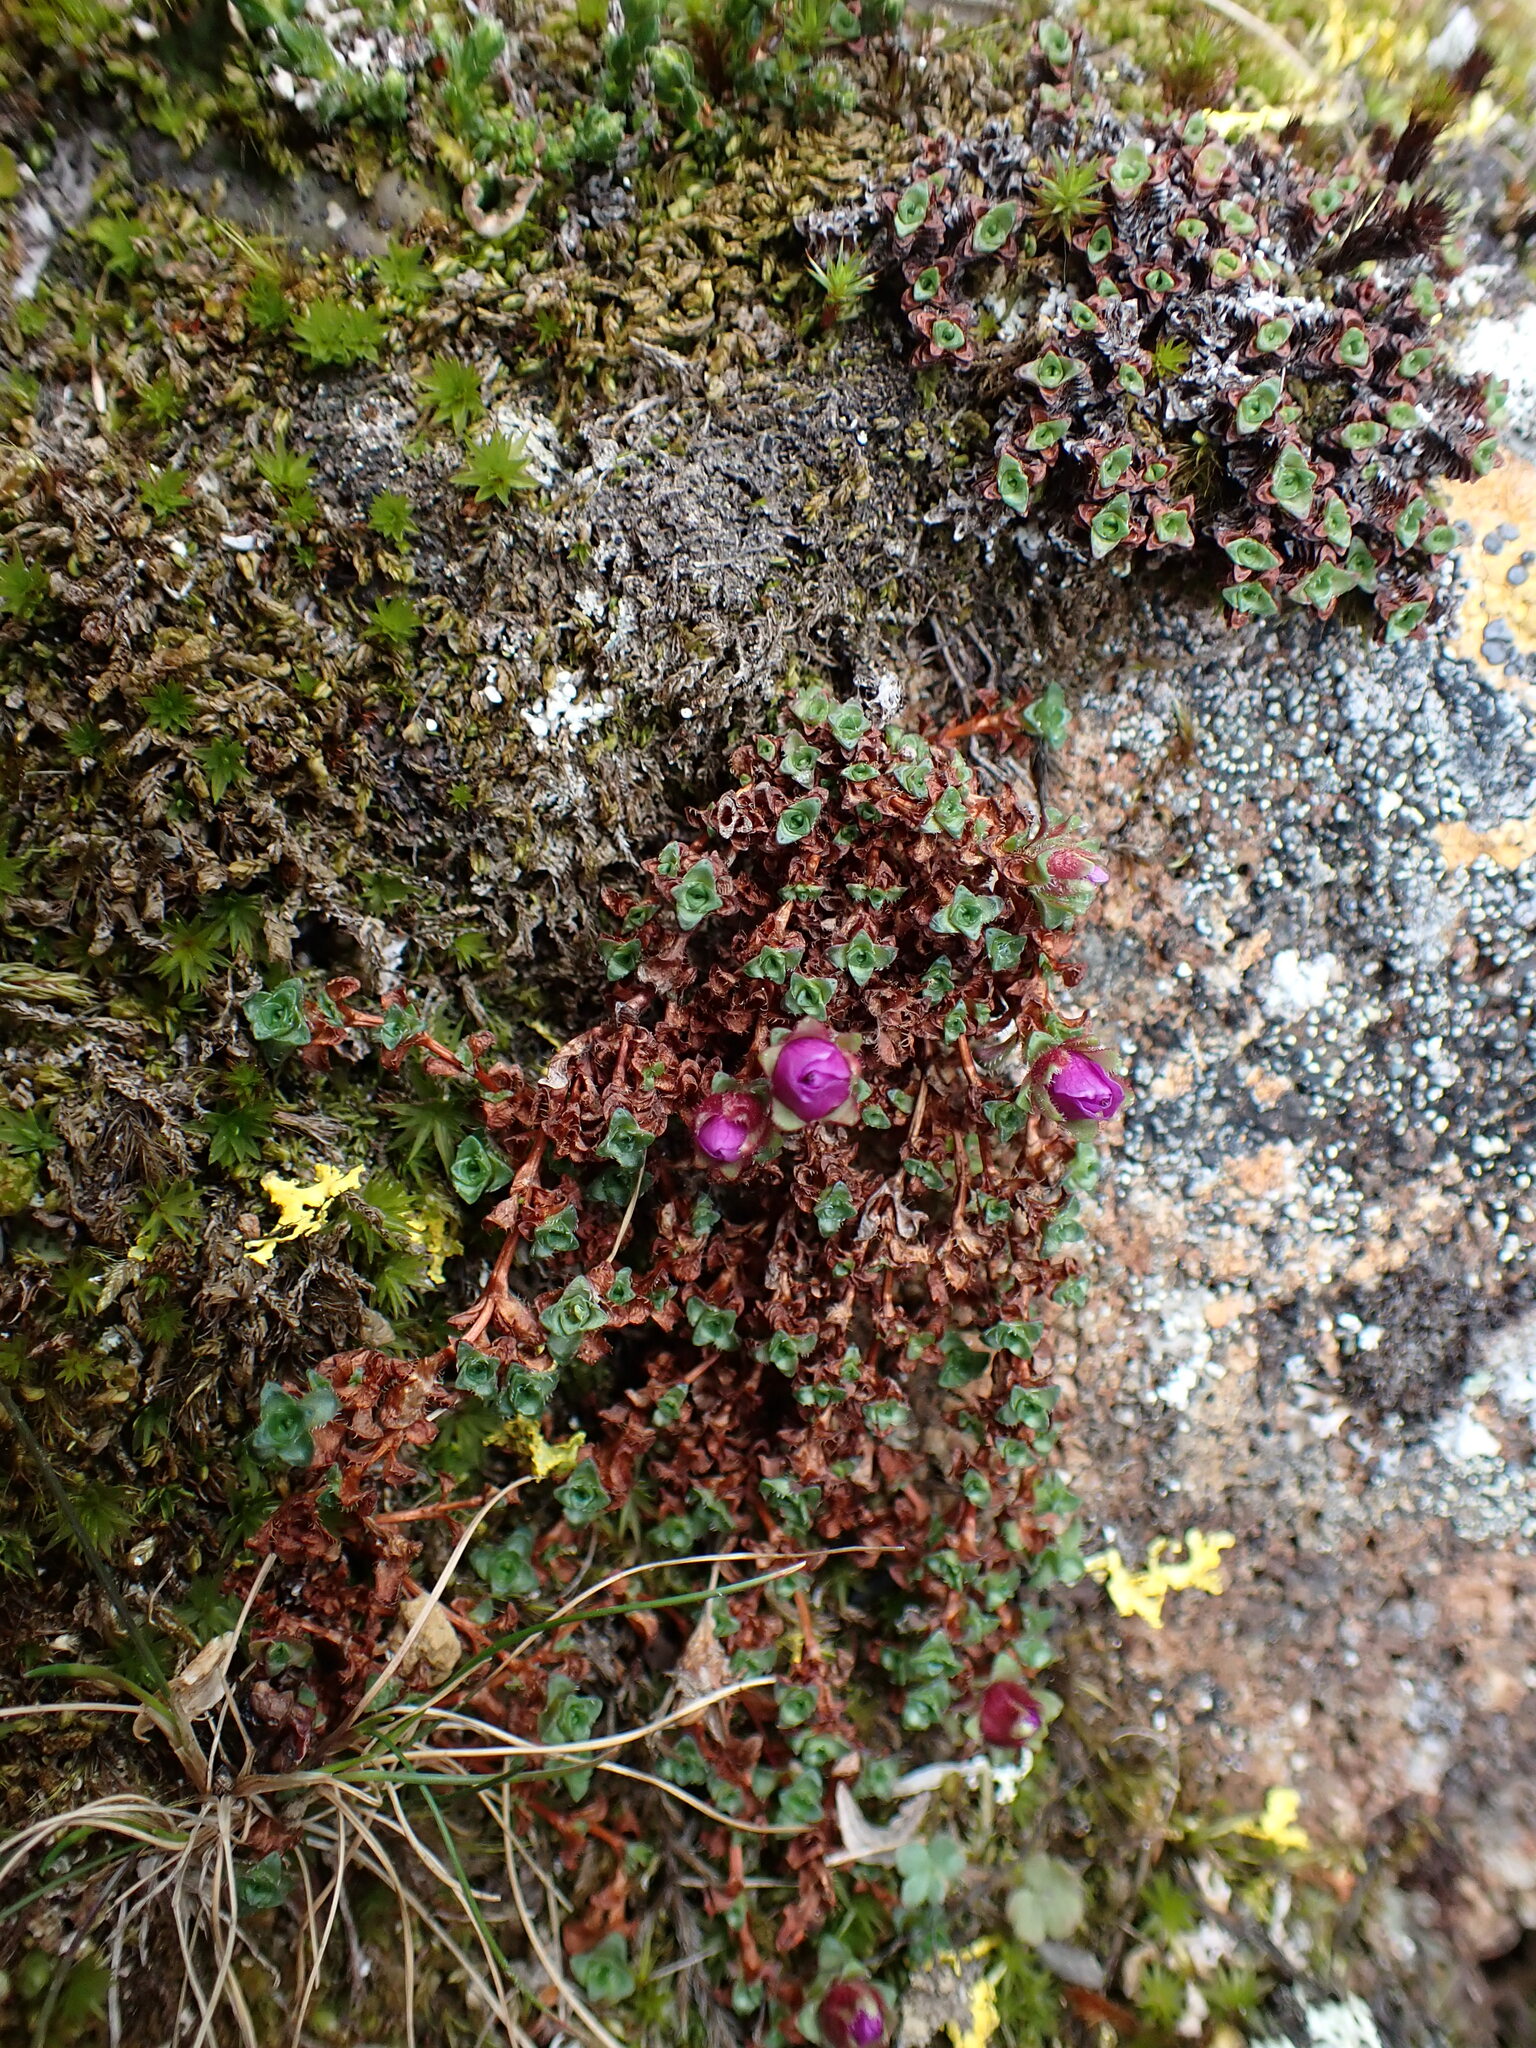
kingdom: Plantae
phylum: Tracheophyta
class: Magnoliopsida
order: Saxifragales
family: Saxifragaceae
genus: Saxifraga
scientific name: Saxifraga oppositifolia
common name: Purple saxifrage
